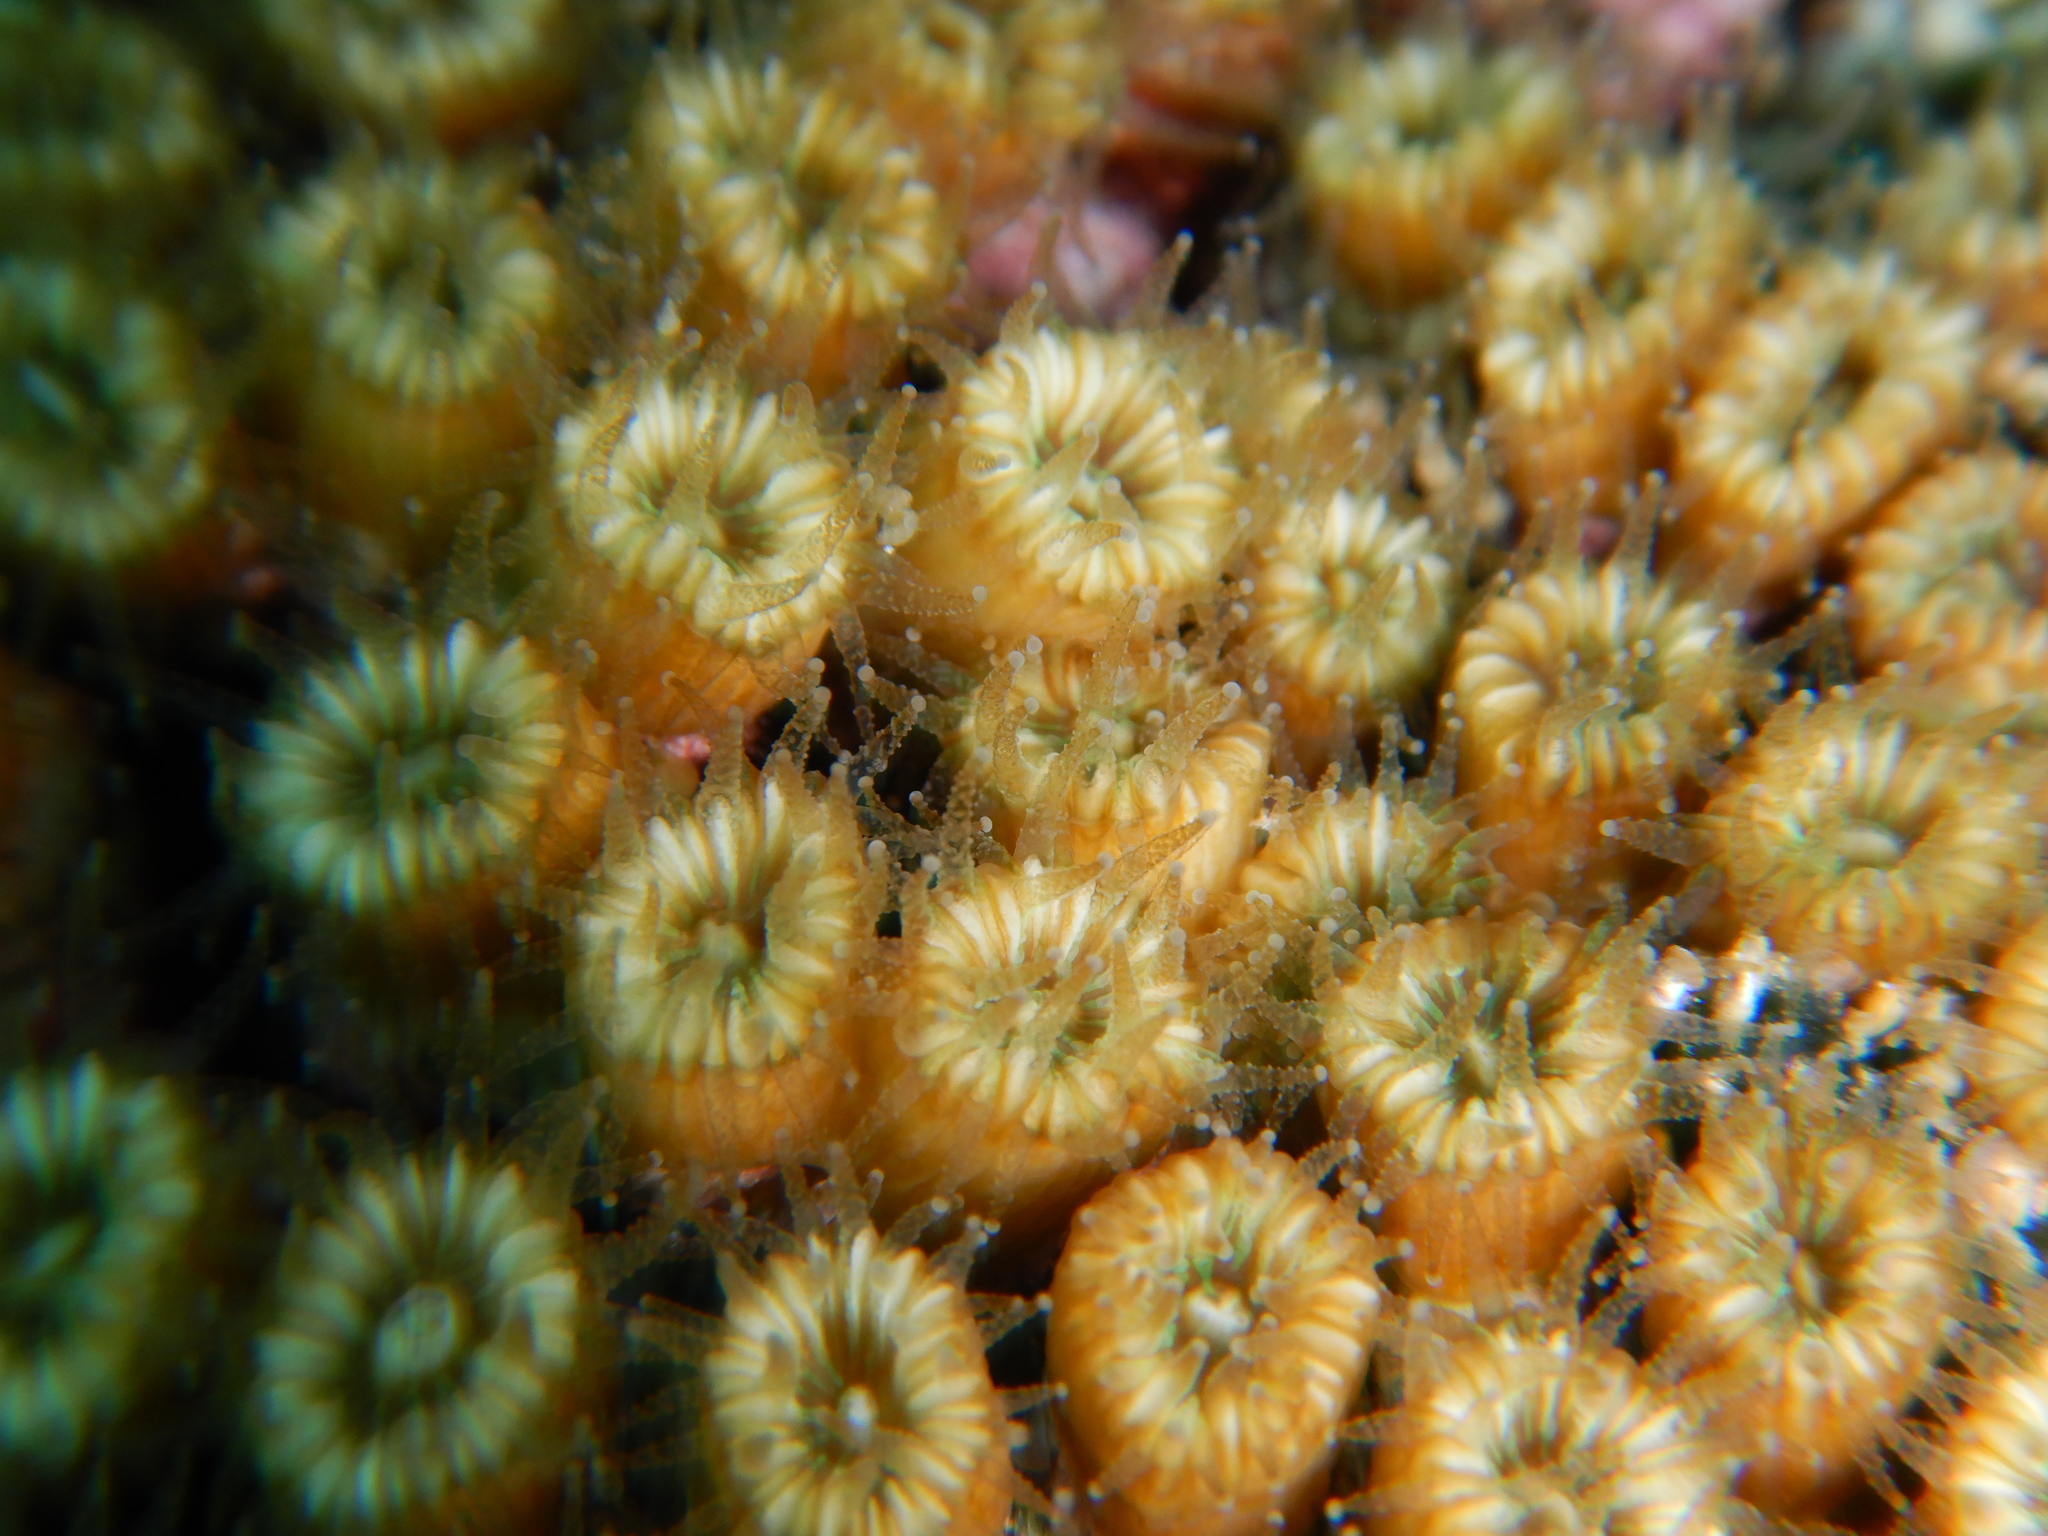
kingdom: Animalia
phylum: Cnidaria
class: Anthozoa
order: Scleractinia
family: Cladocoridae
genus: Cladocora
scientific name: Cladocora caespitosa
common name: Cladocora
